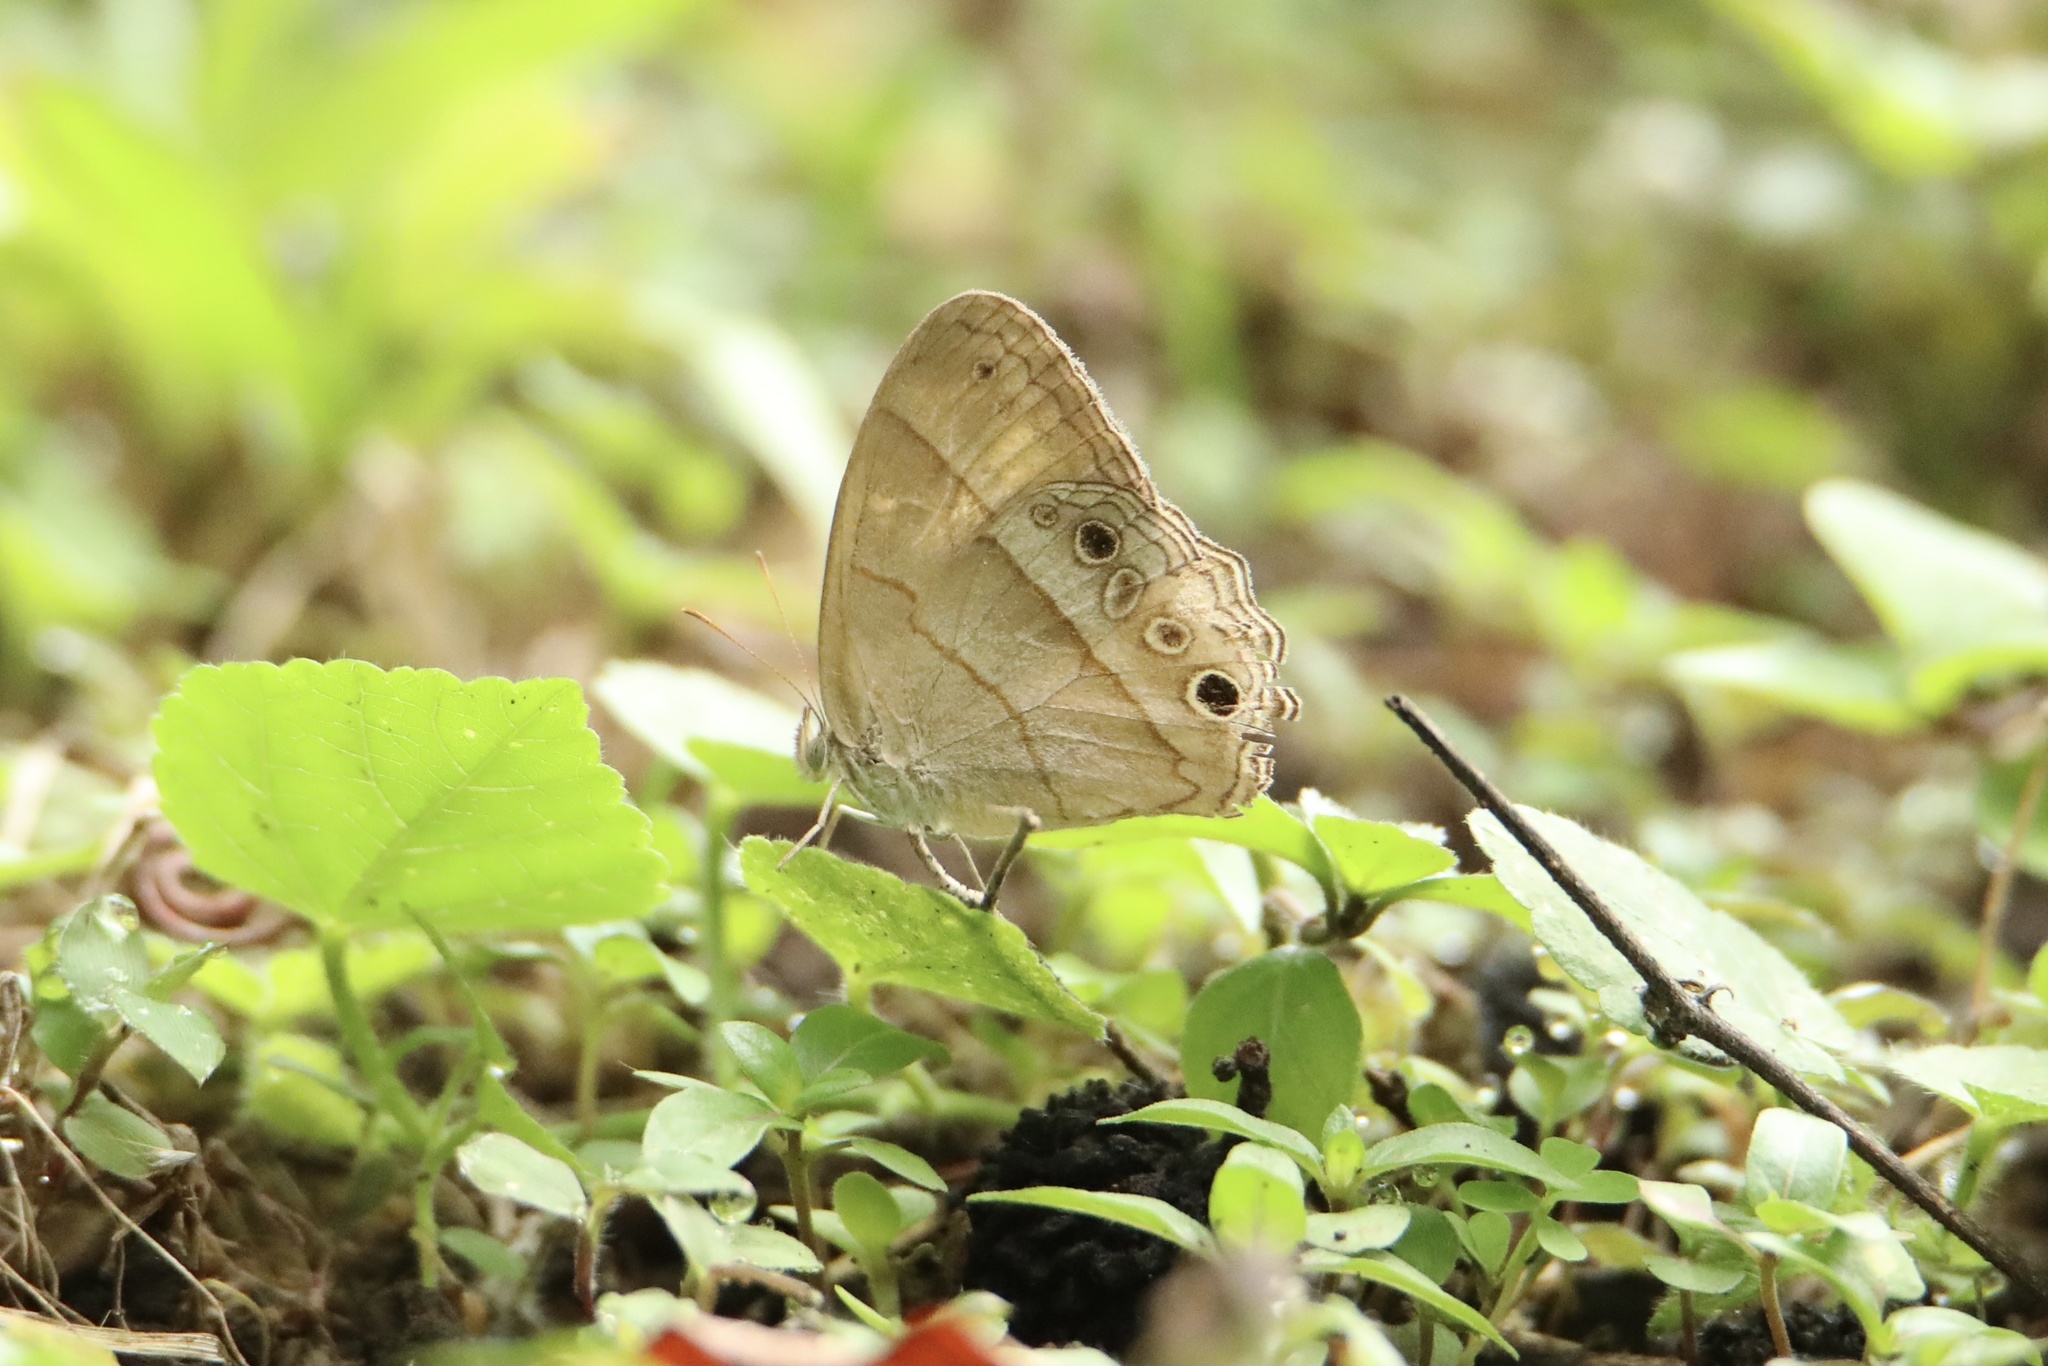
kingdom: Animalia
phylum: Arthropoda
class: Insecta
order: Lepidoptera
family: Nymphalidae
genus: Vareuptychia
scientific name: Vareuptychia similis
